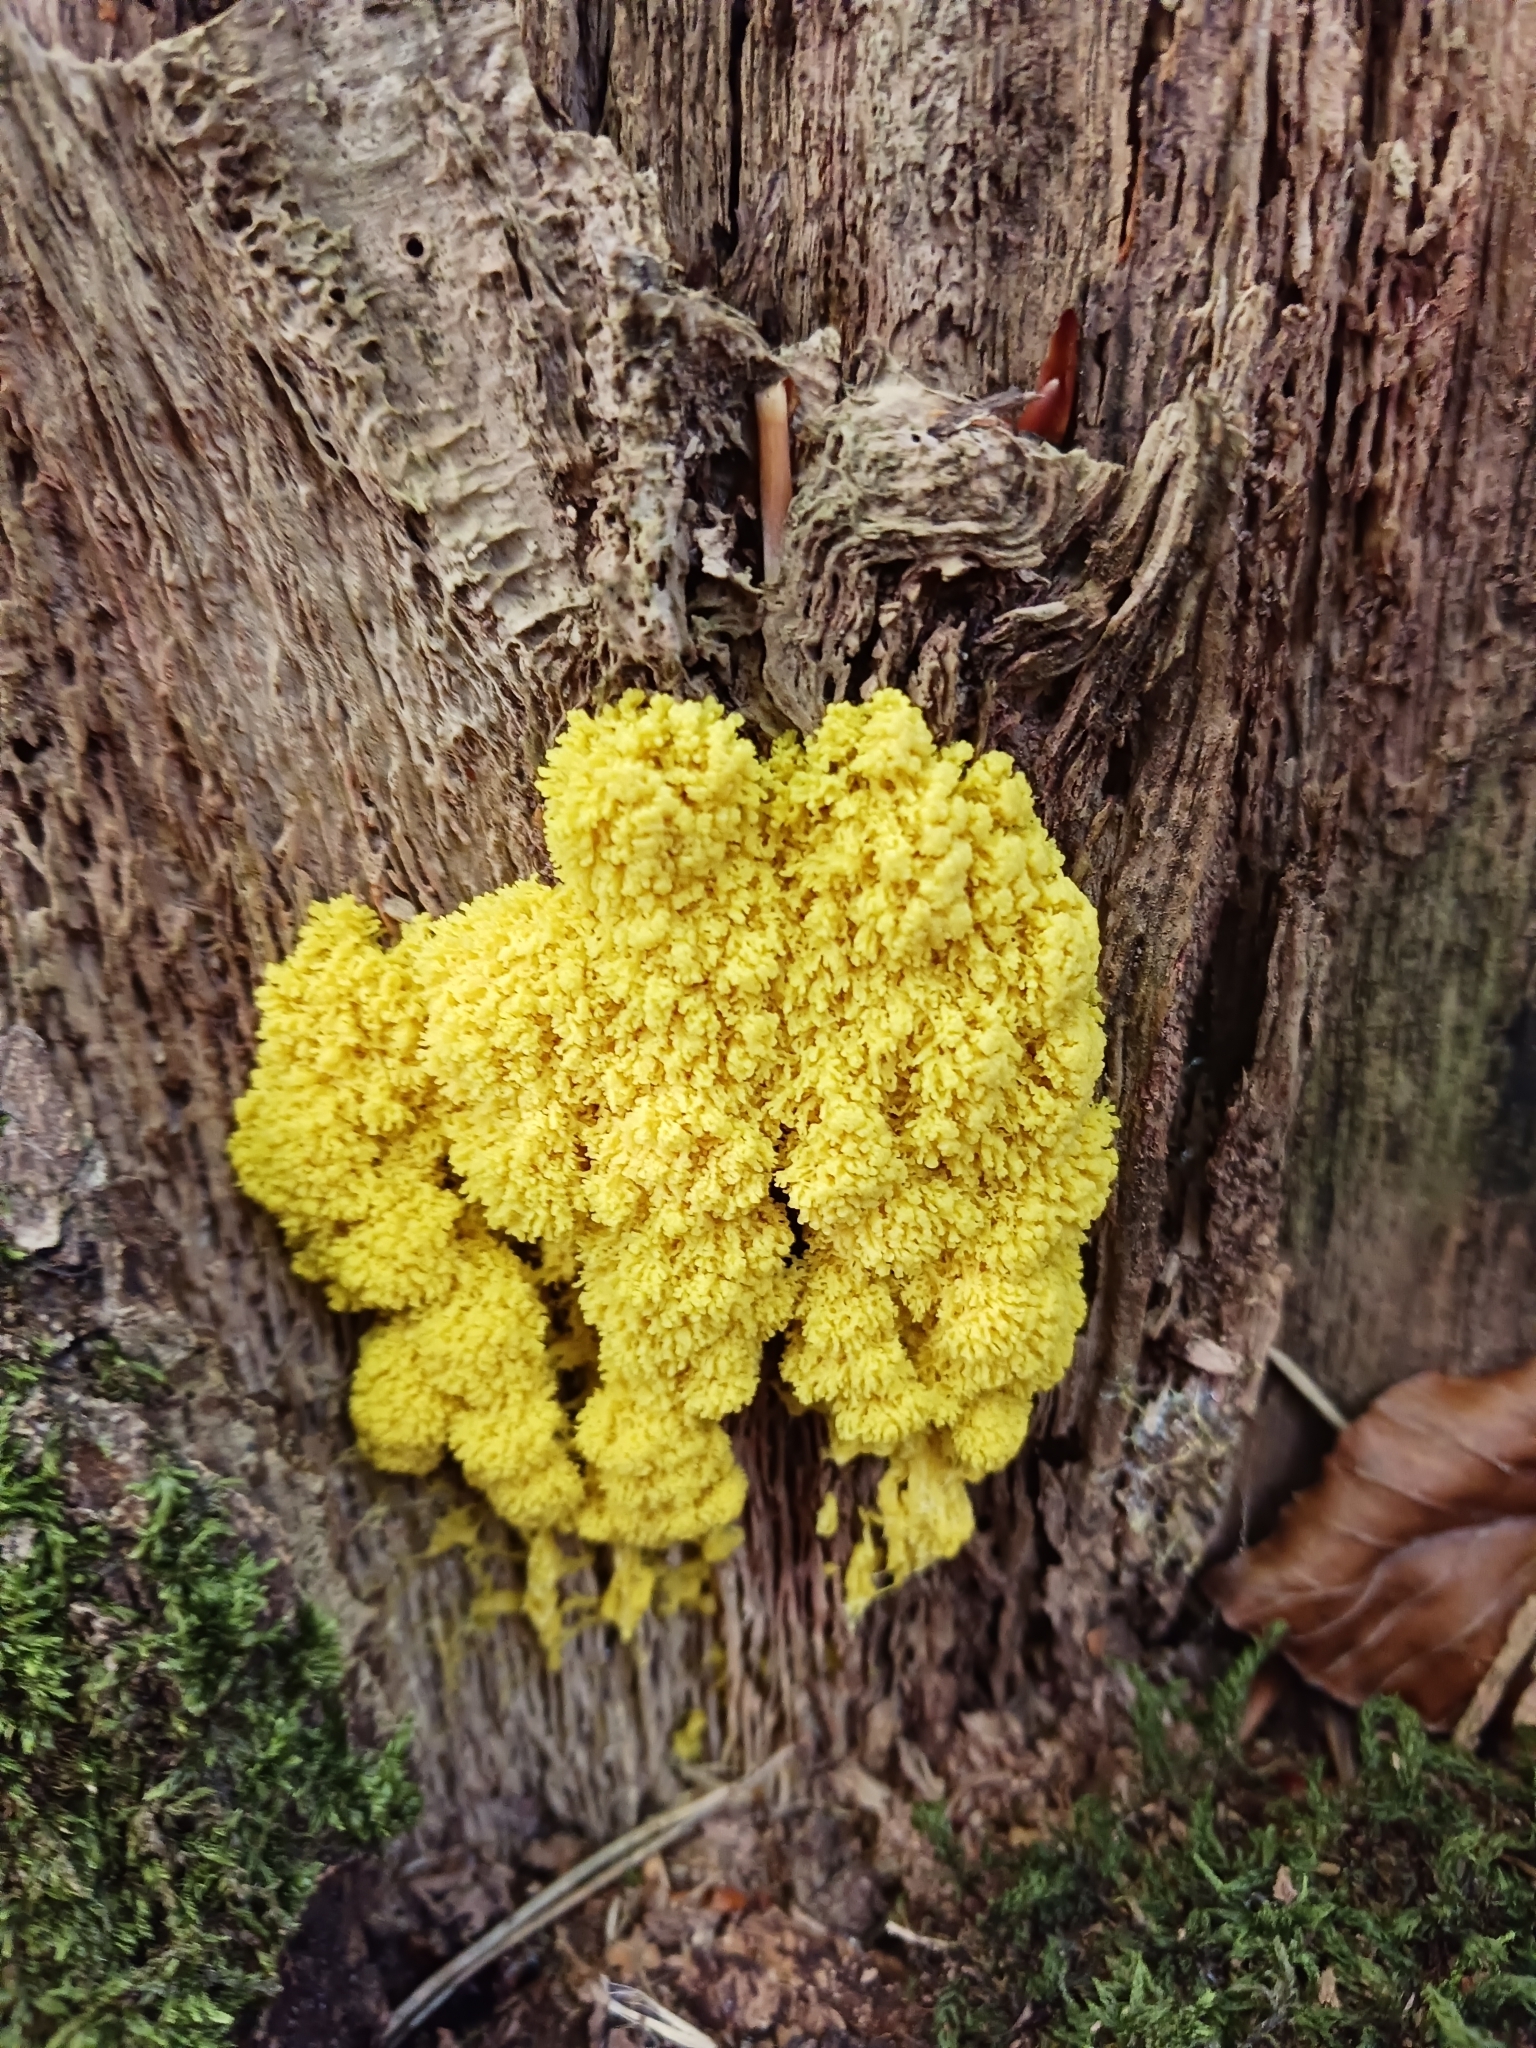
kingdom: Protozoa
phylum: Mycetozoa
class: Myxomycetes
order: Physarales
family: Physaraceae
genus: Fuligo
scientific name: Fuligo septica
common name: Dog vomit slime mold
